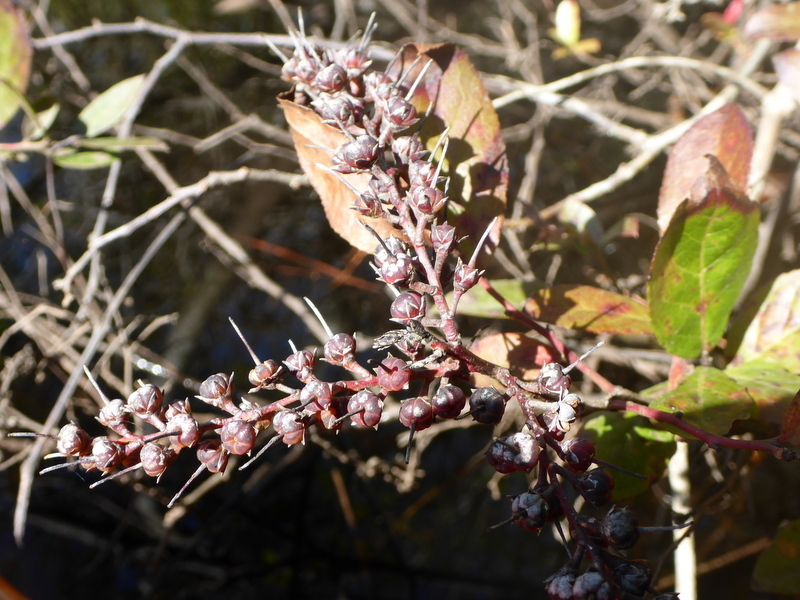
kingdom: Plantae
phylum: Tracheophyta
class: Magnoliopsida
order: Ericales
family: Ericaceae
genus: Eubotrys
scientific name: Eubotrys racemosa
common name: Fetterbush
